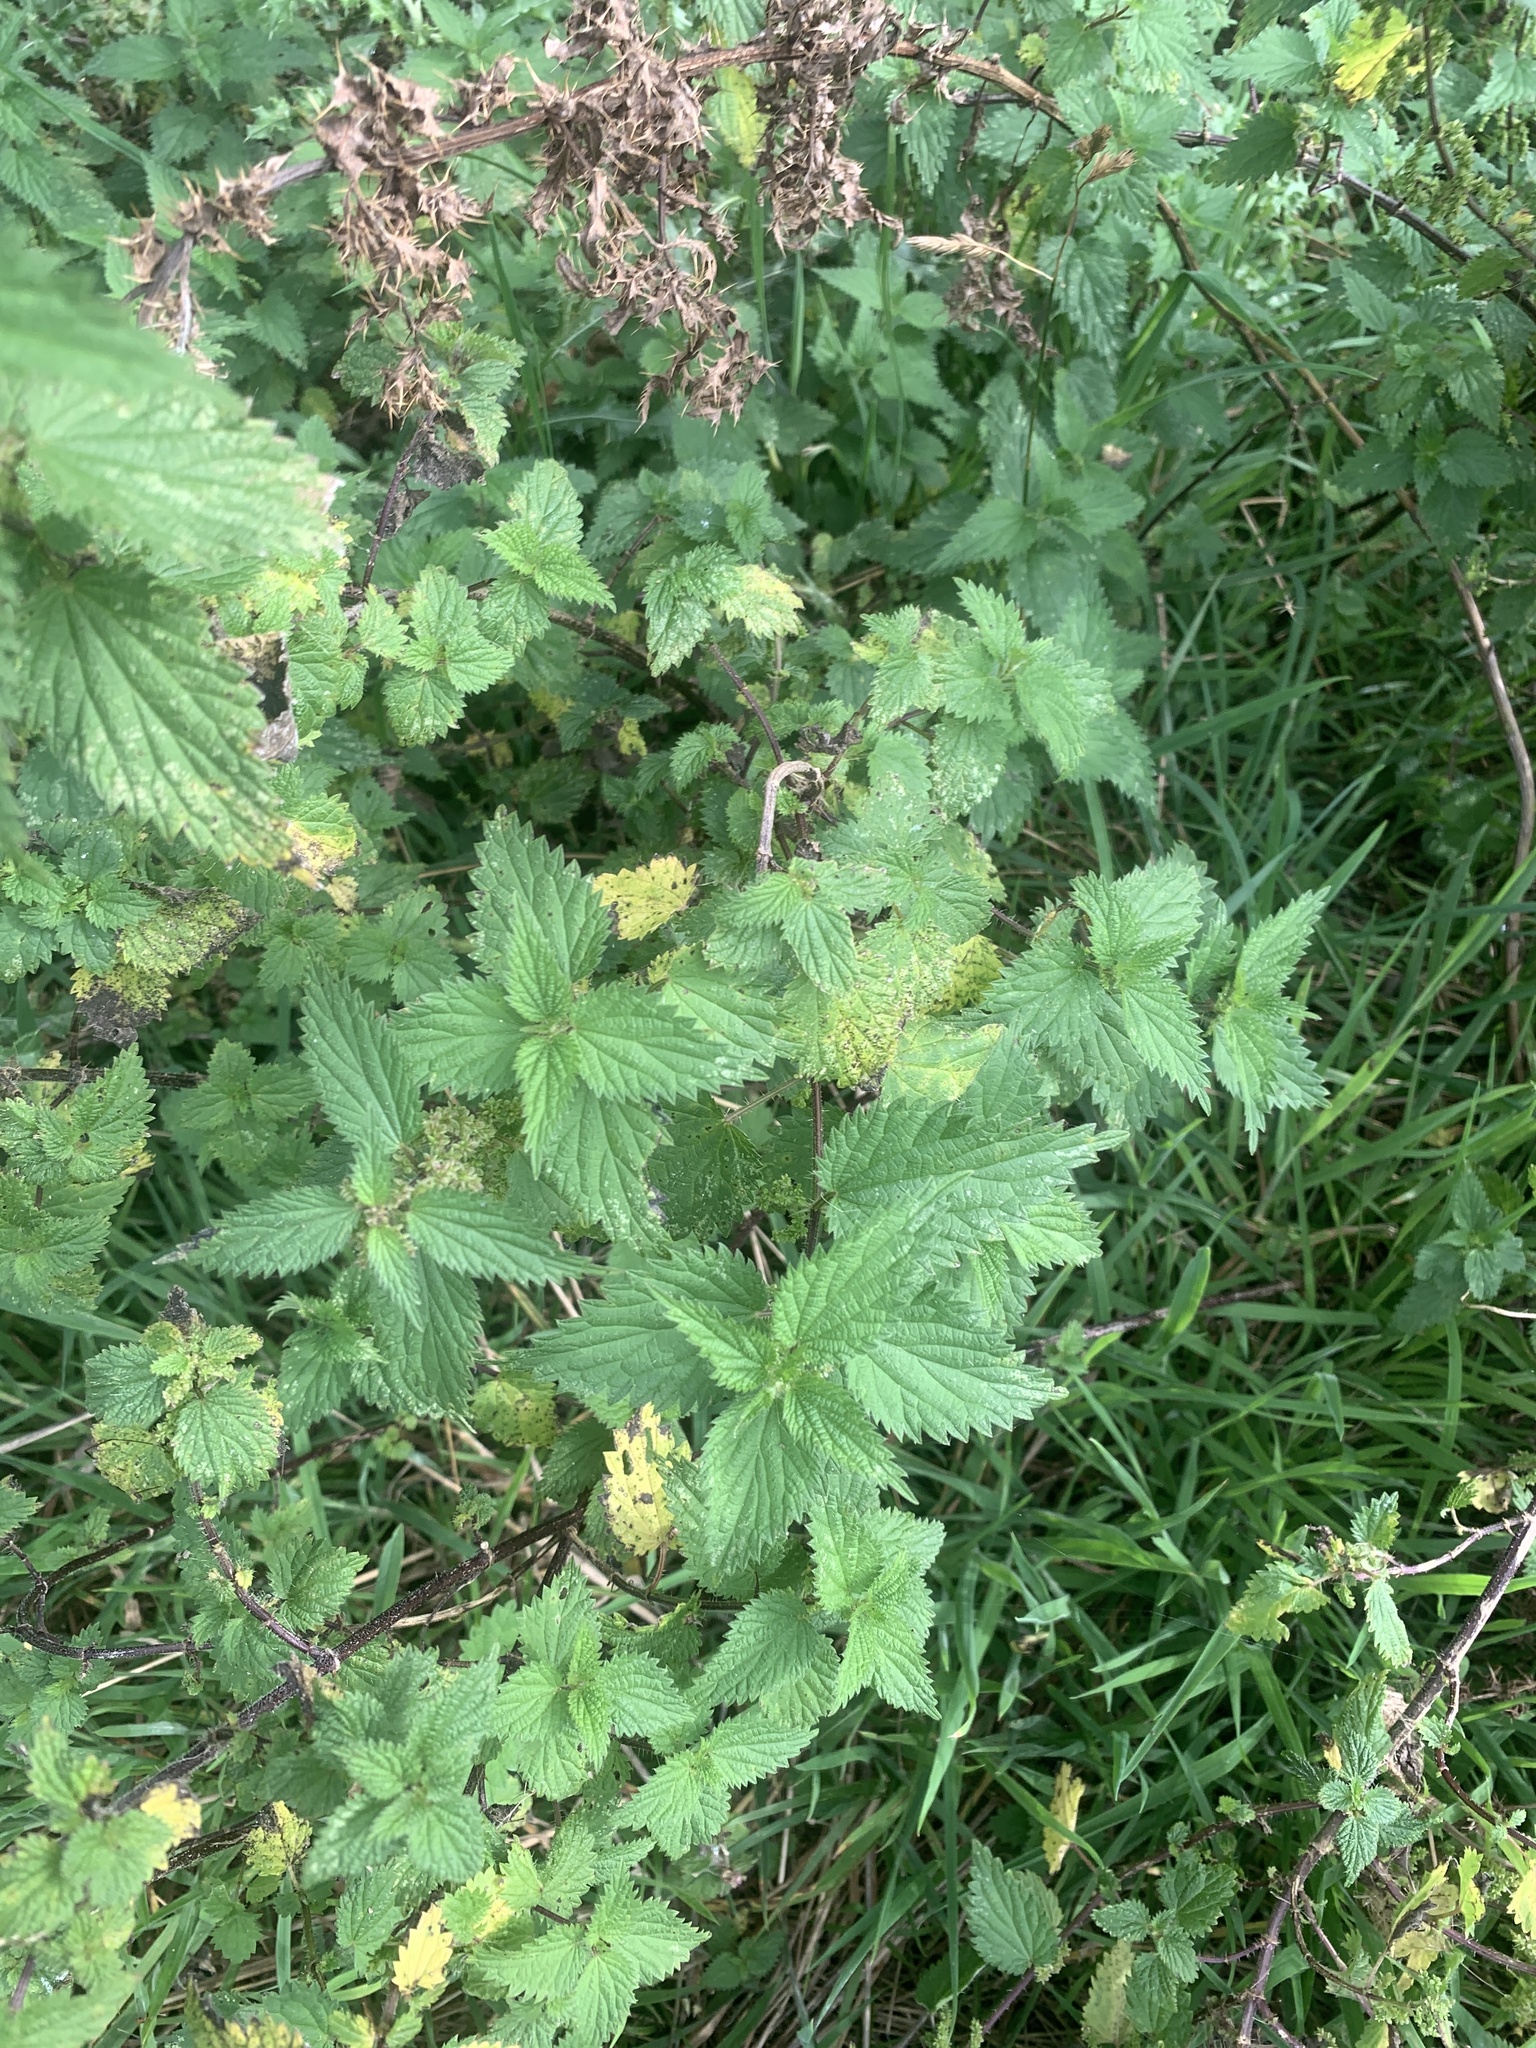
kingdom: Plantae
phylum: Tracheophyta
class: Magnoliopsida
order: Rosales
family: Urticaceae
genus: Urtica
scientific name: Urtica dioica
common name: Common nettle
